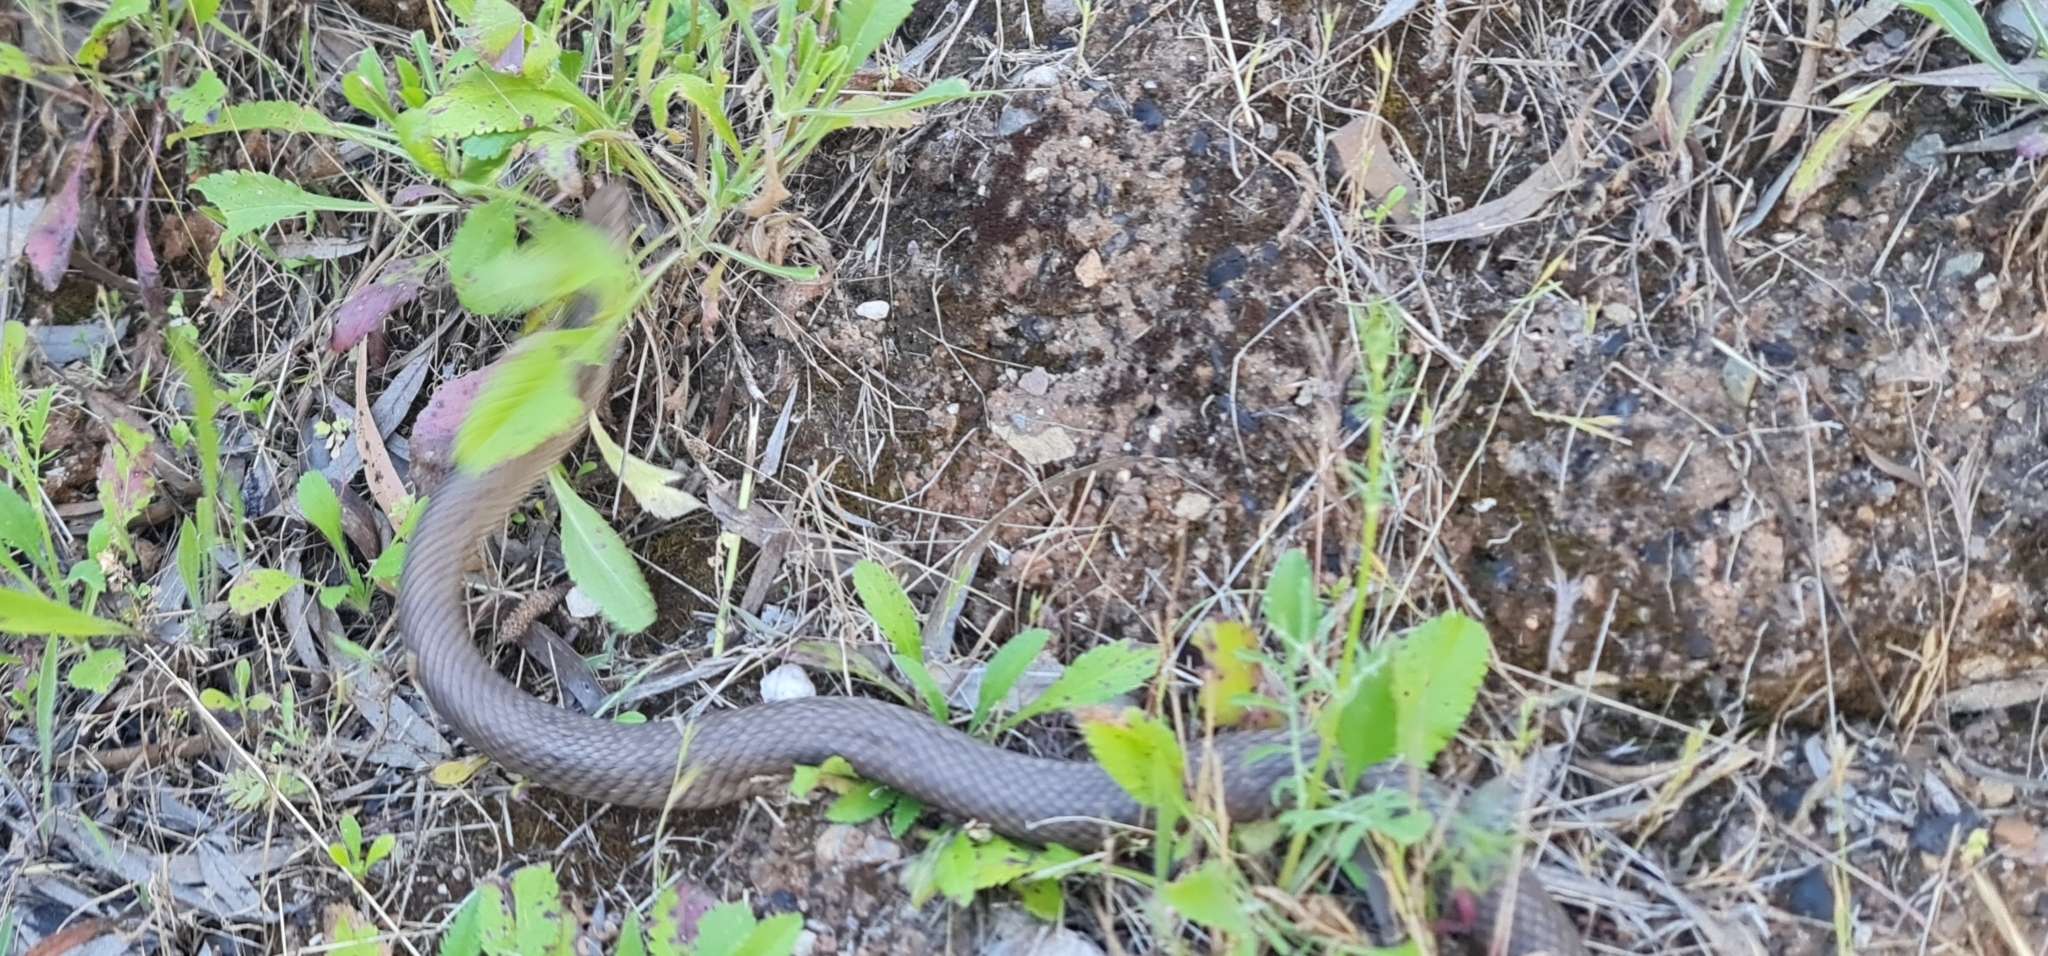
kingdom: Animalia
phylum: Chordata
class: Squamata
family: Elapidae
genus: Pseudonaja
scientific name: Pseudonaja textilis
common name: Eastern brown snake
